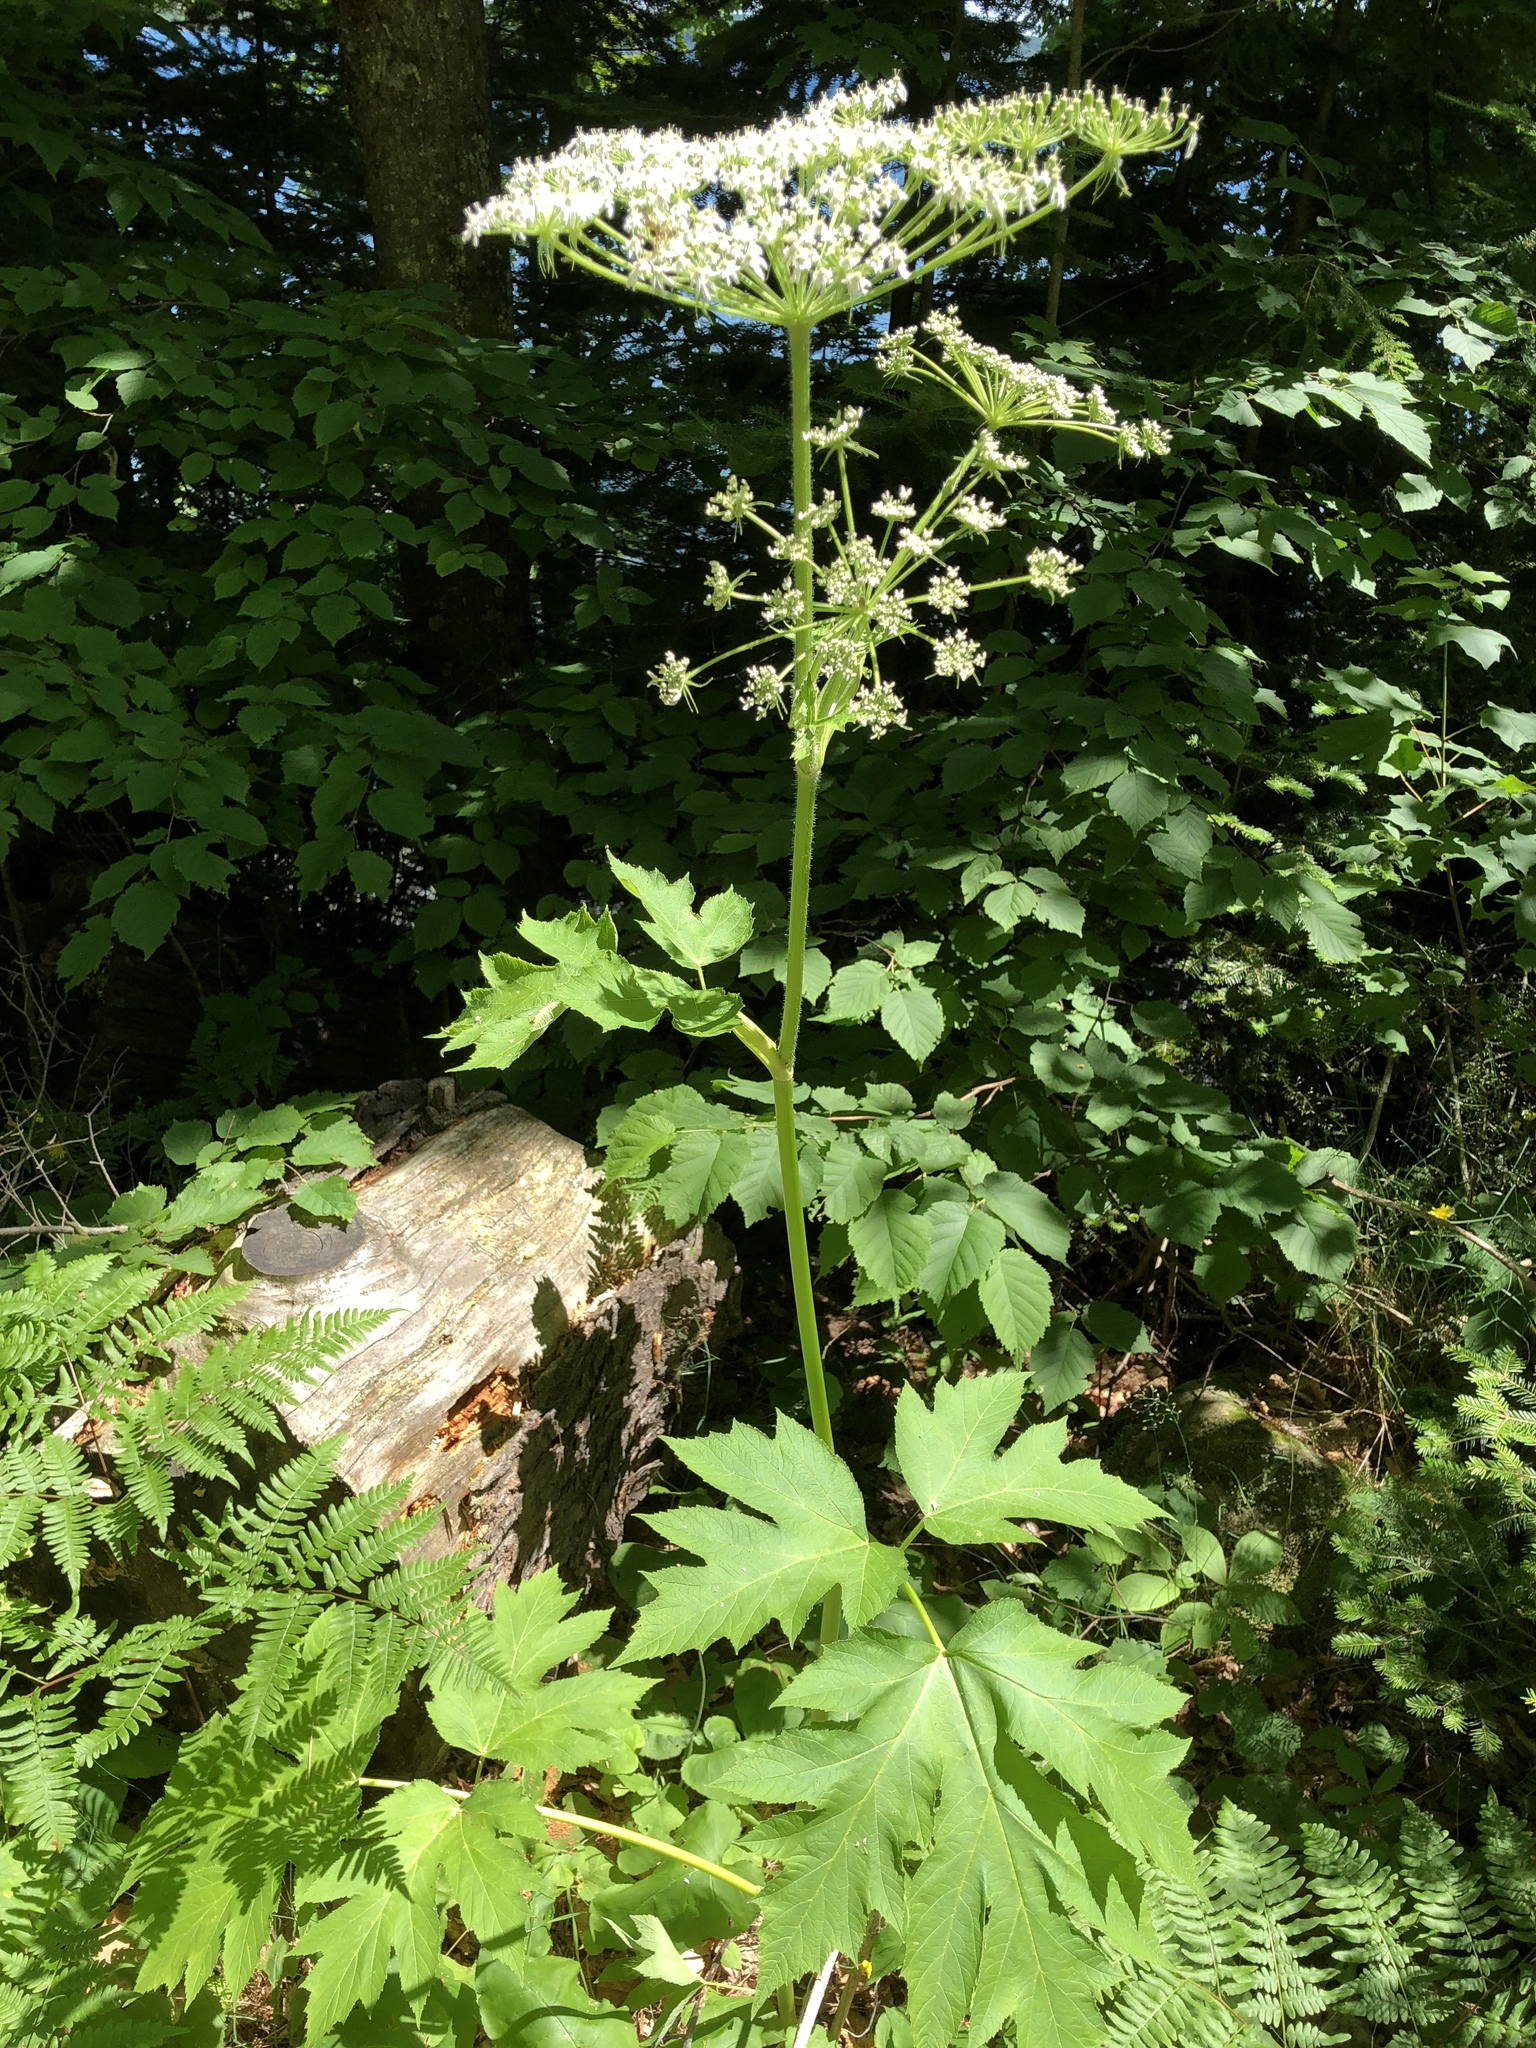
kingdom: Plantae
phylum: Tracheophyta
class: Magnoliopsida
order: Apiales
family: Apiaceae
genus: Heracleum
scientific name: Heracleum maximum
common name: American cow parsnip
